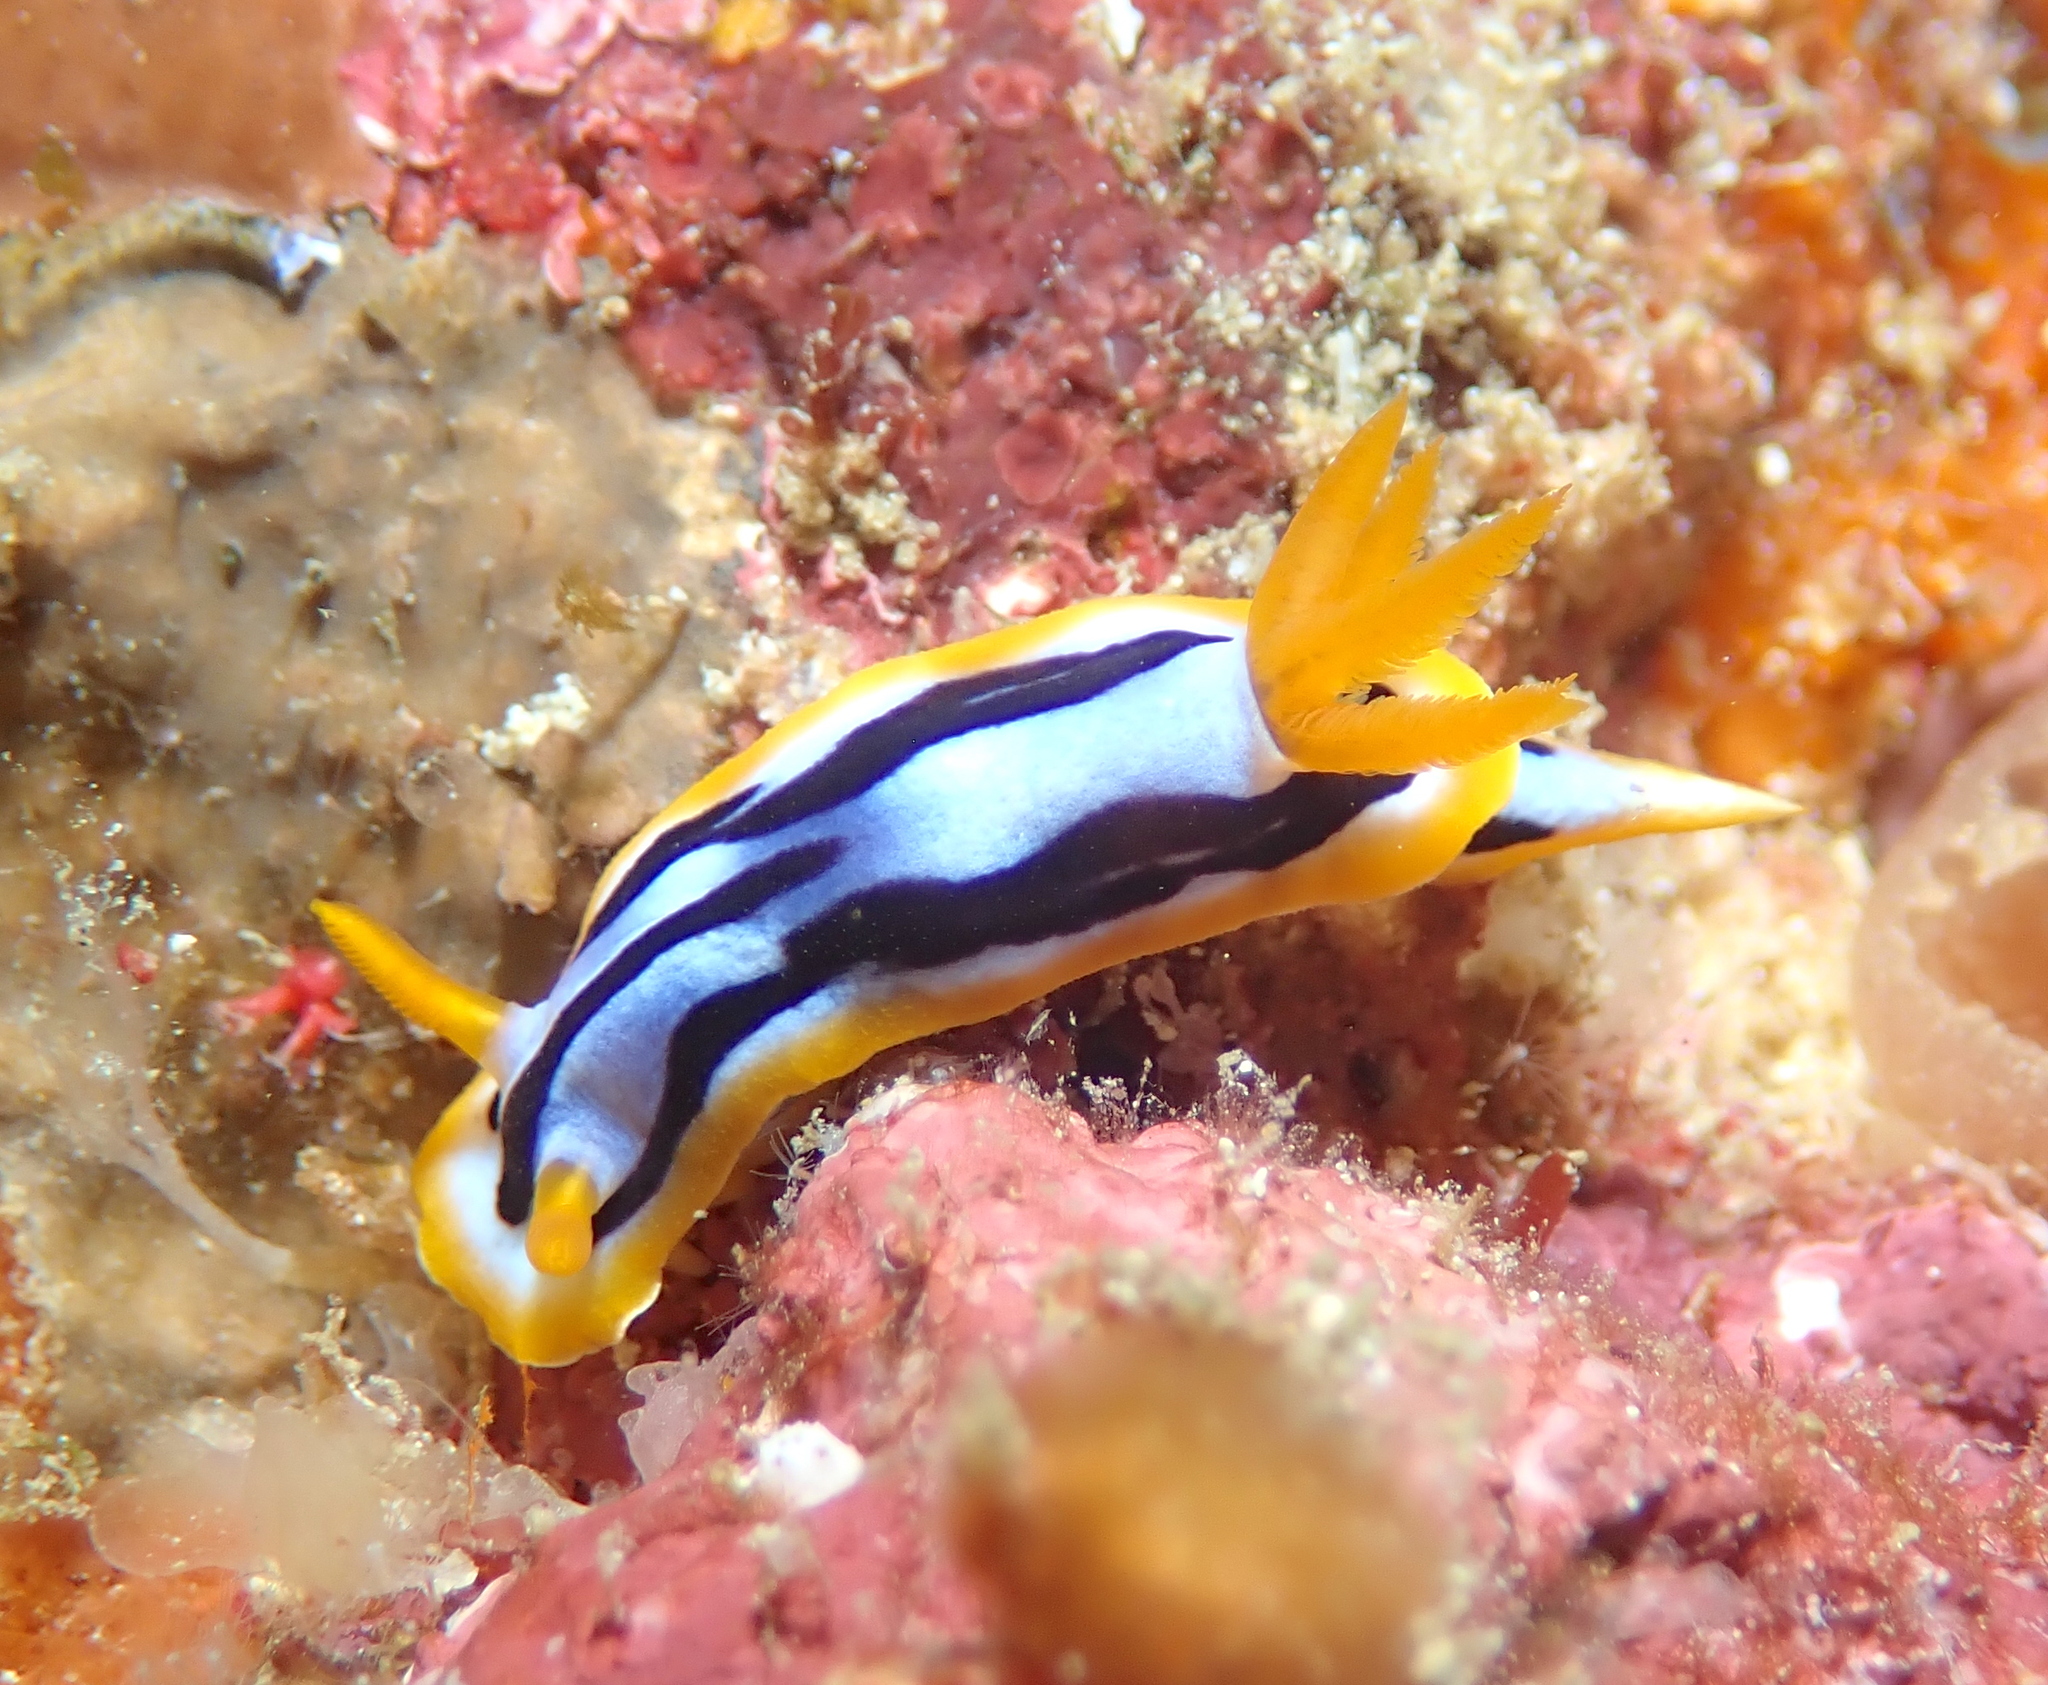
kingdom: Animalia
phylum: Mollusca
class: Gastropoda
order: Nudibranchia
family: Chromodorididae
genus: Chromodoris
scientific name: Chromodoris strigata
